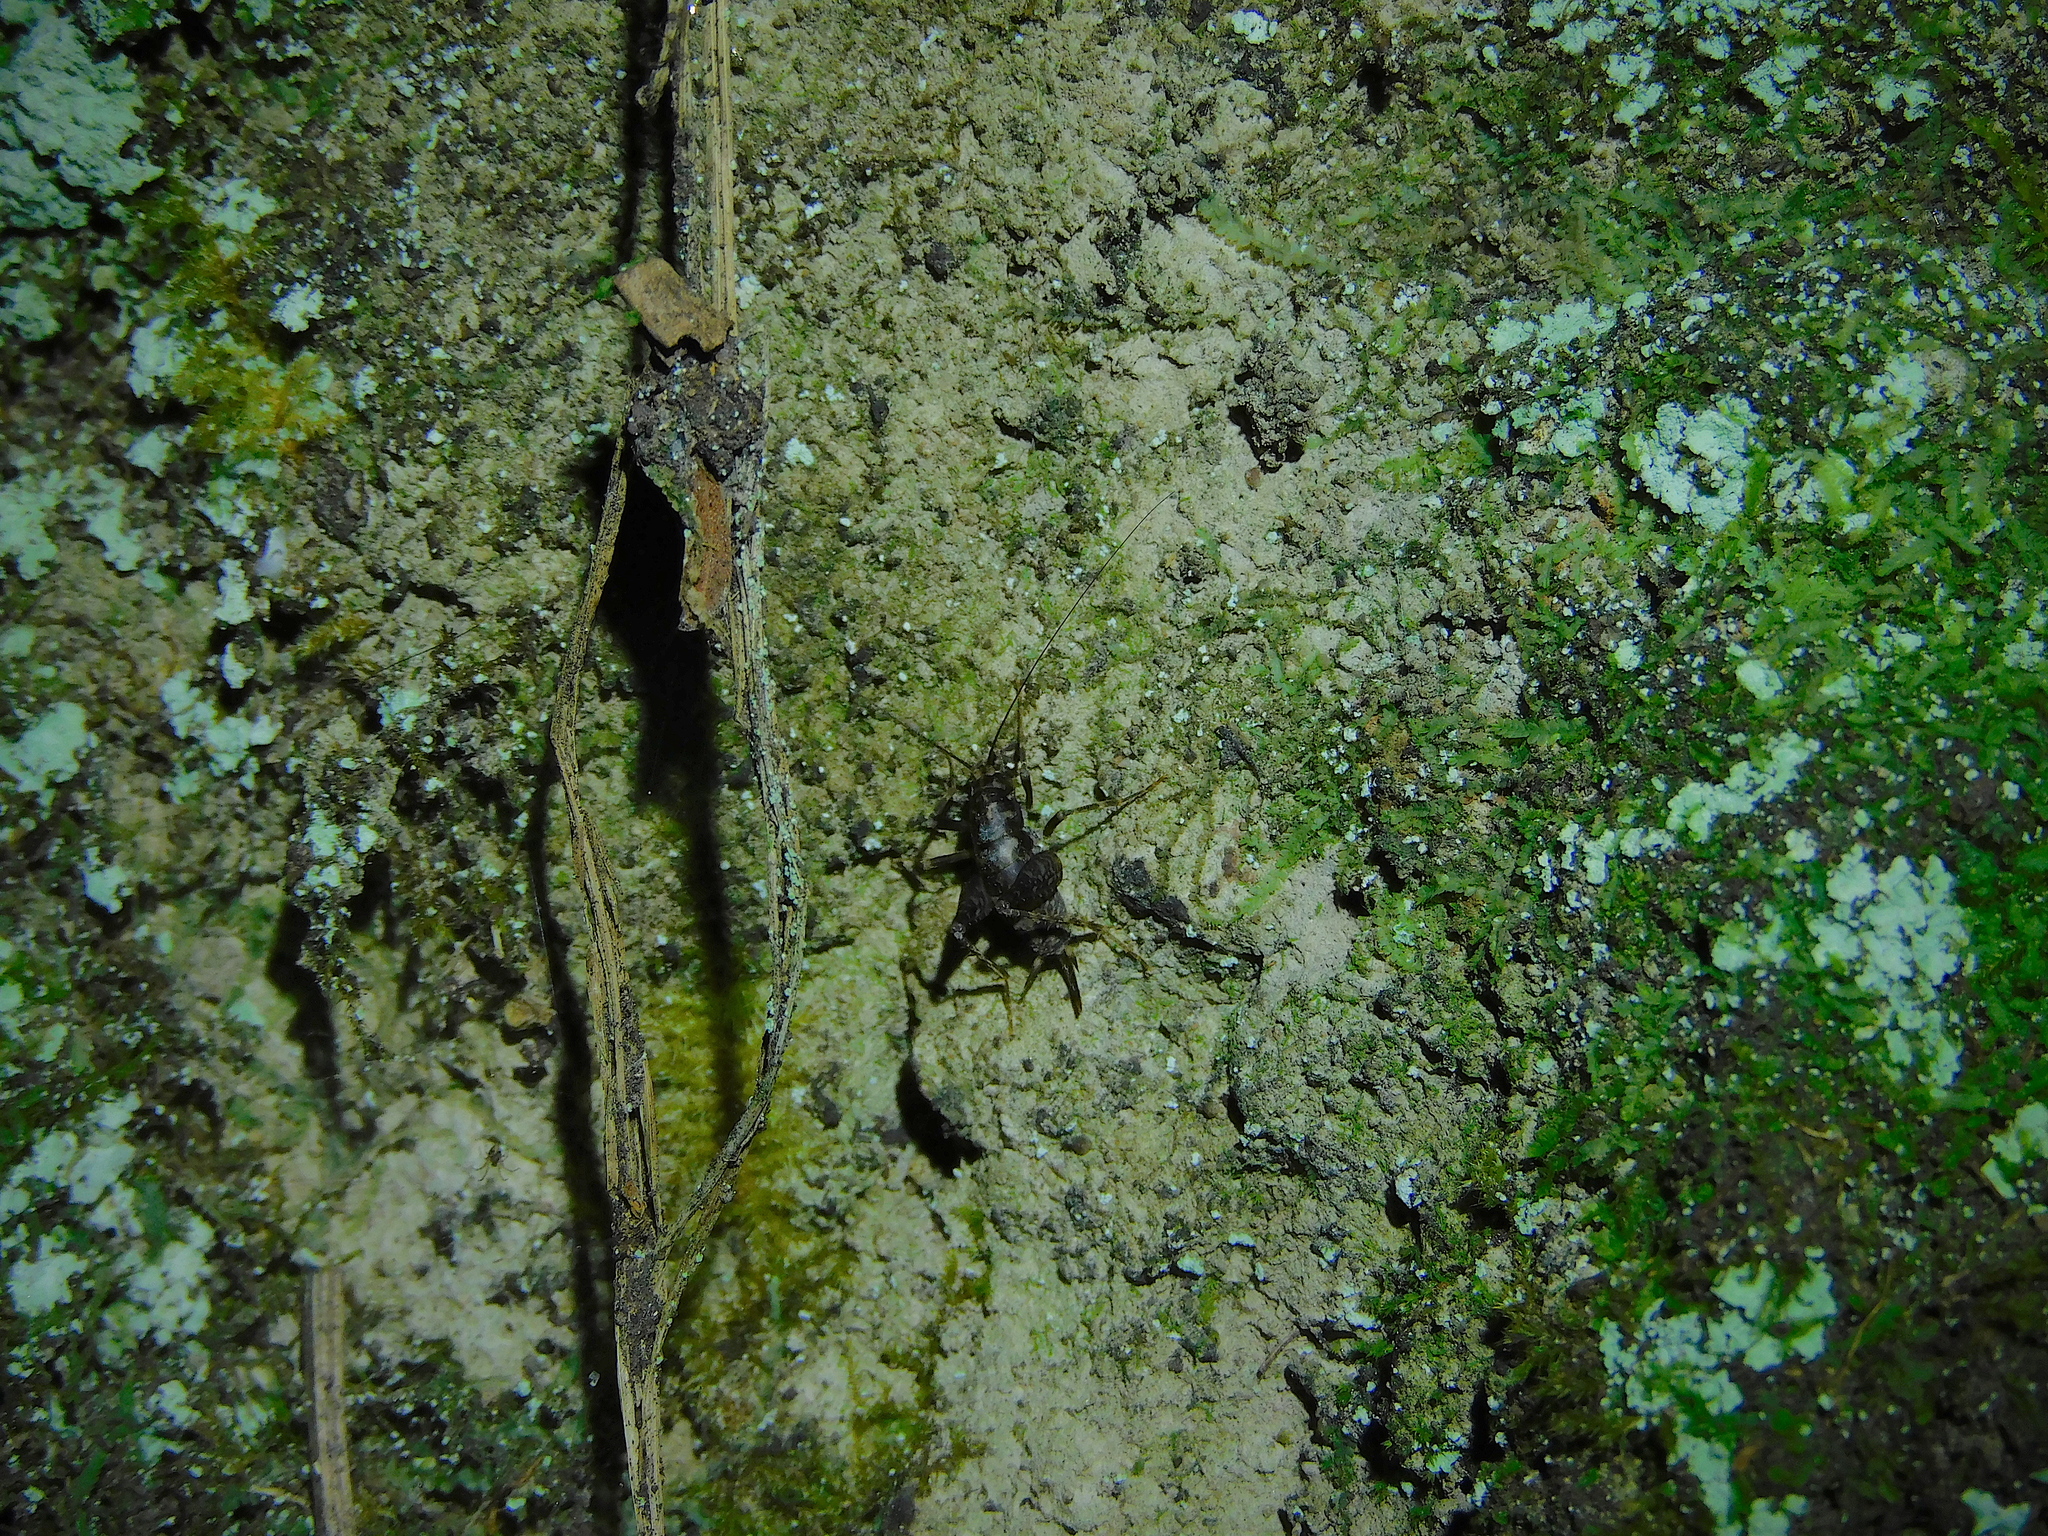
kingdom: Animalia
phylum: Arthropoda
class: Insecta
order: Orthoptera
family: Rhaphidophoridae
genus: Parvotettix
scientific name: Parvotettix domesticus
